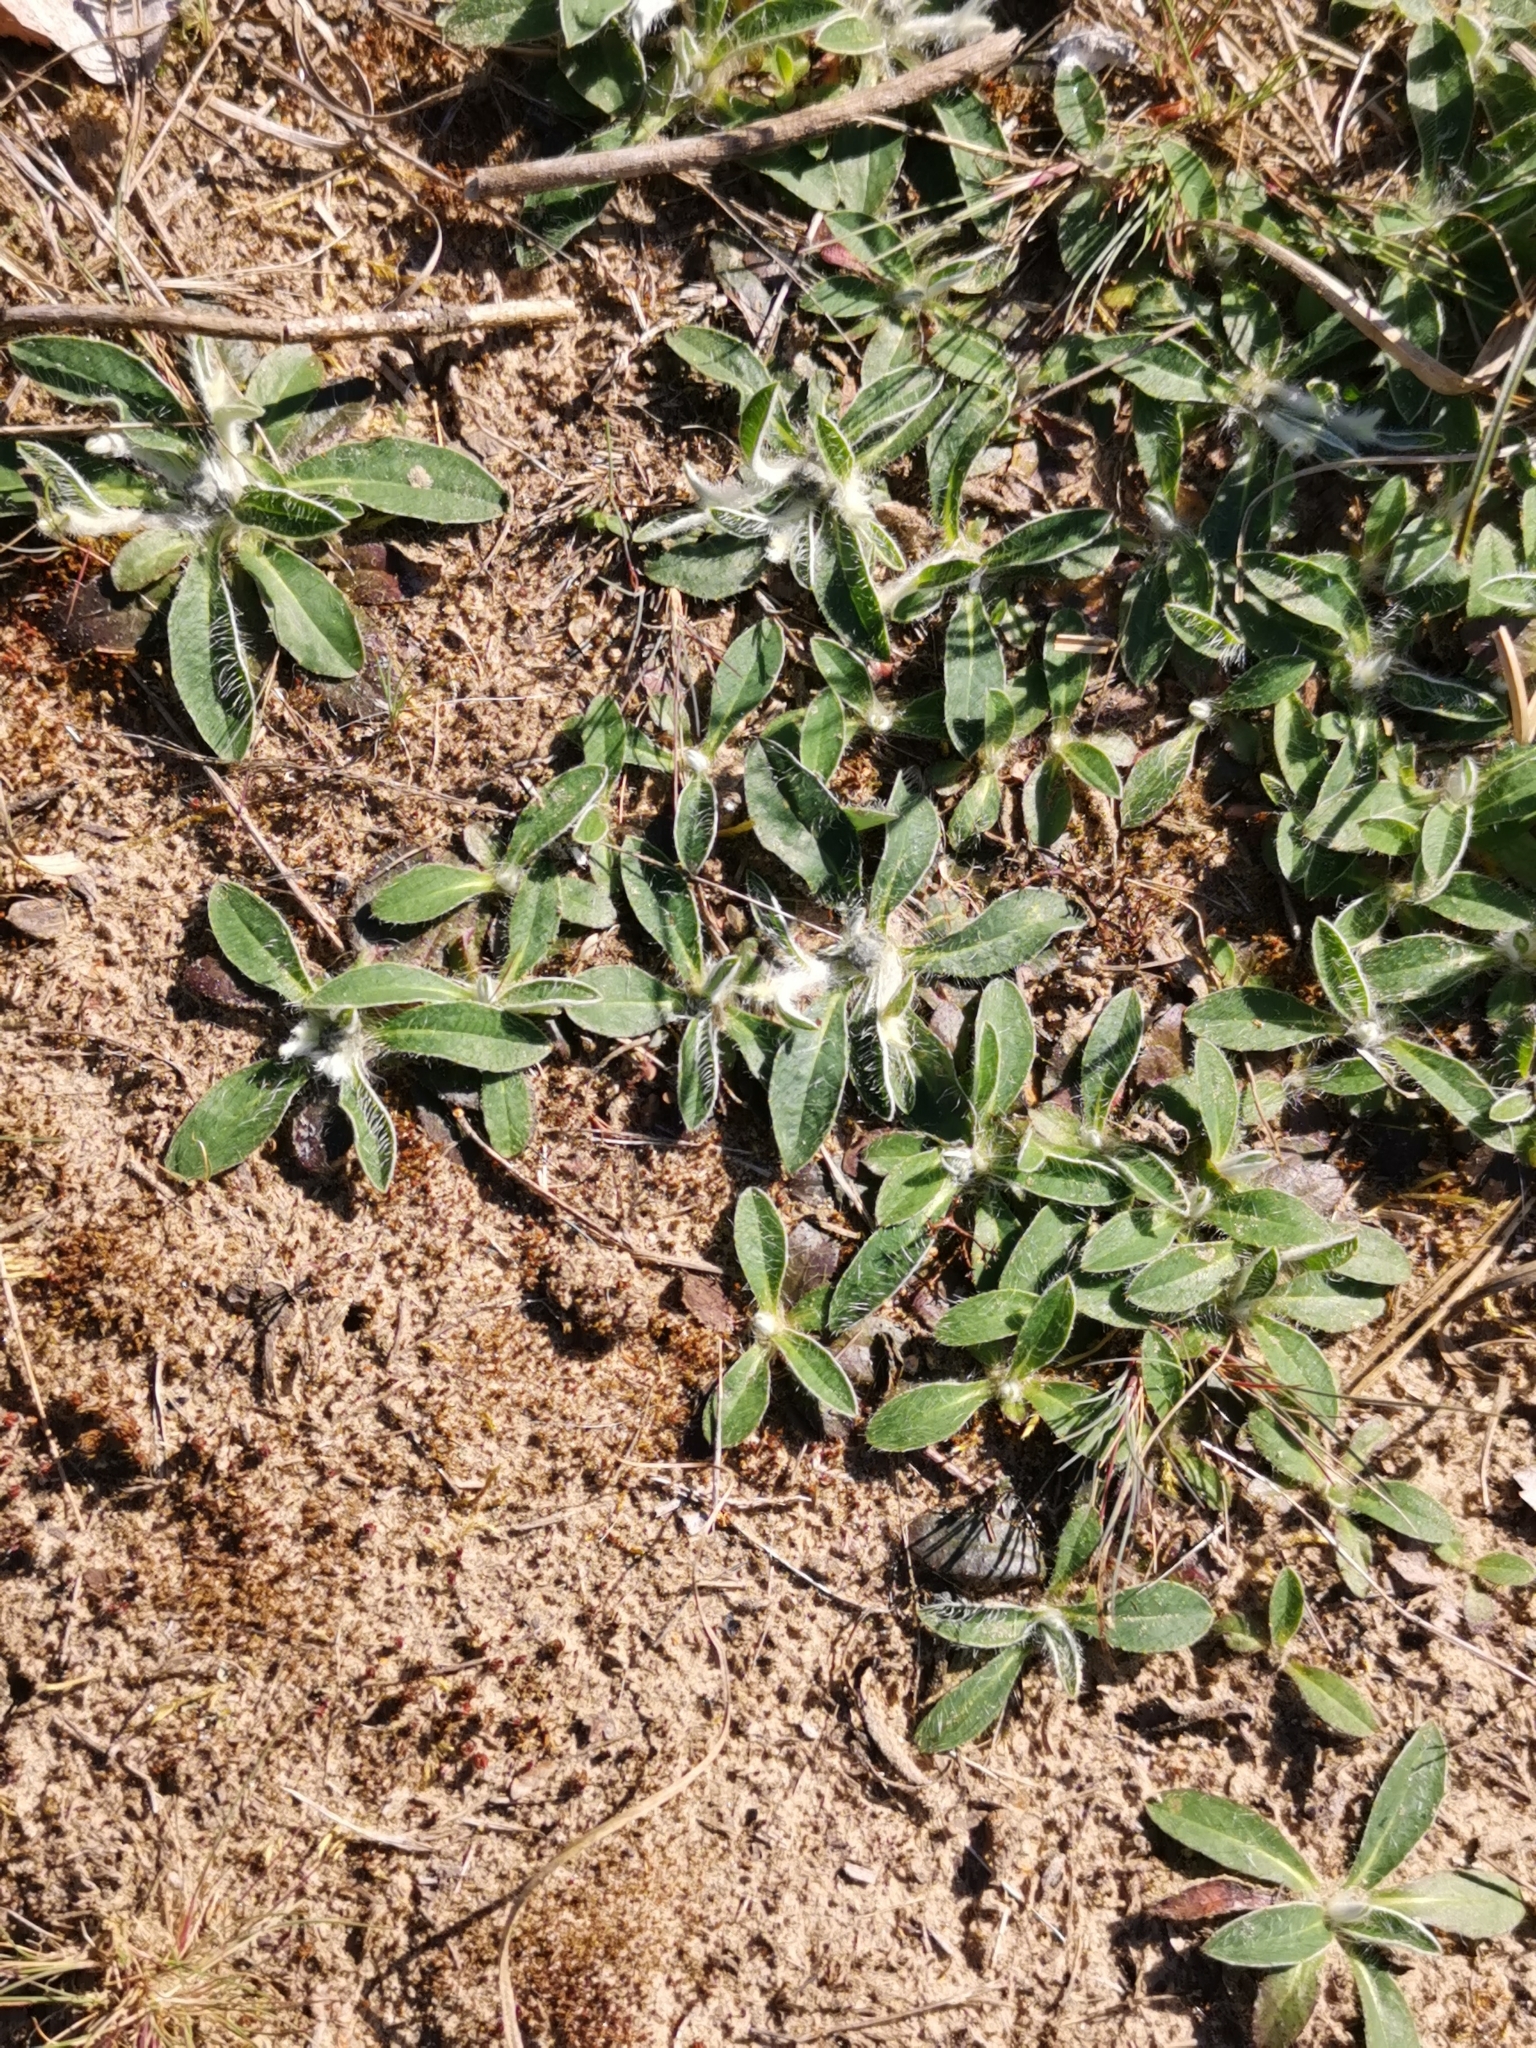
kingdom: Plantae
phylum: Tracheophyta
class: Magnoliopsida
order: Asterales
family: Asteraceae
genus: Pilosella
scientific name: Pilosella officinarum
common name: Mouse-ear hawkweed
